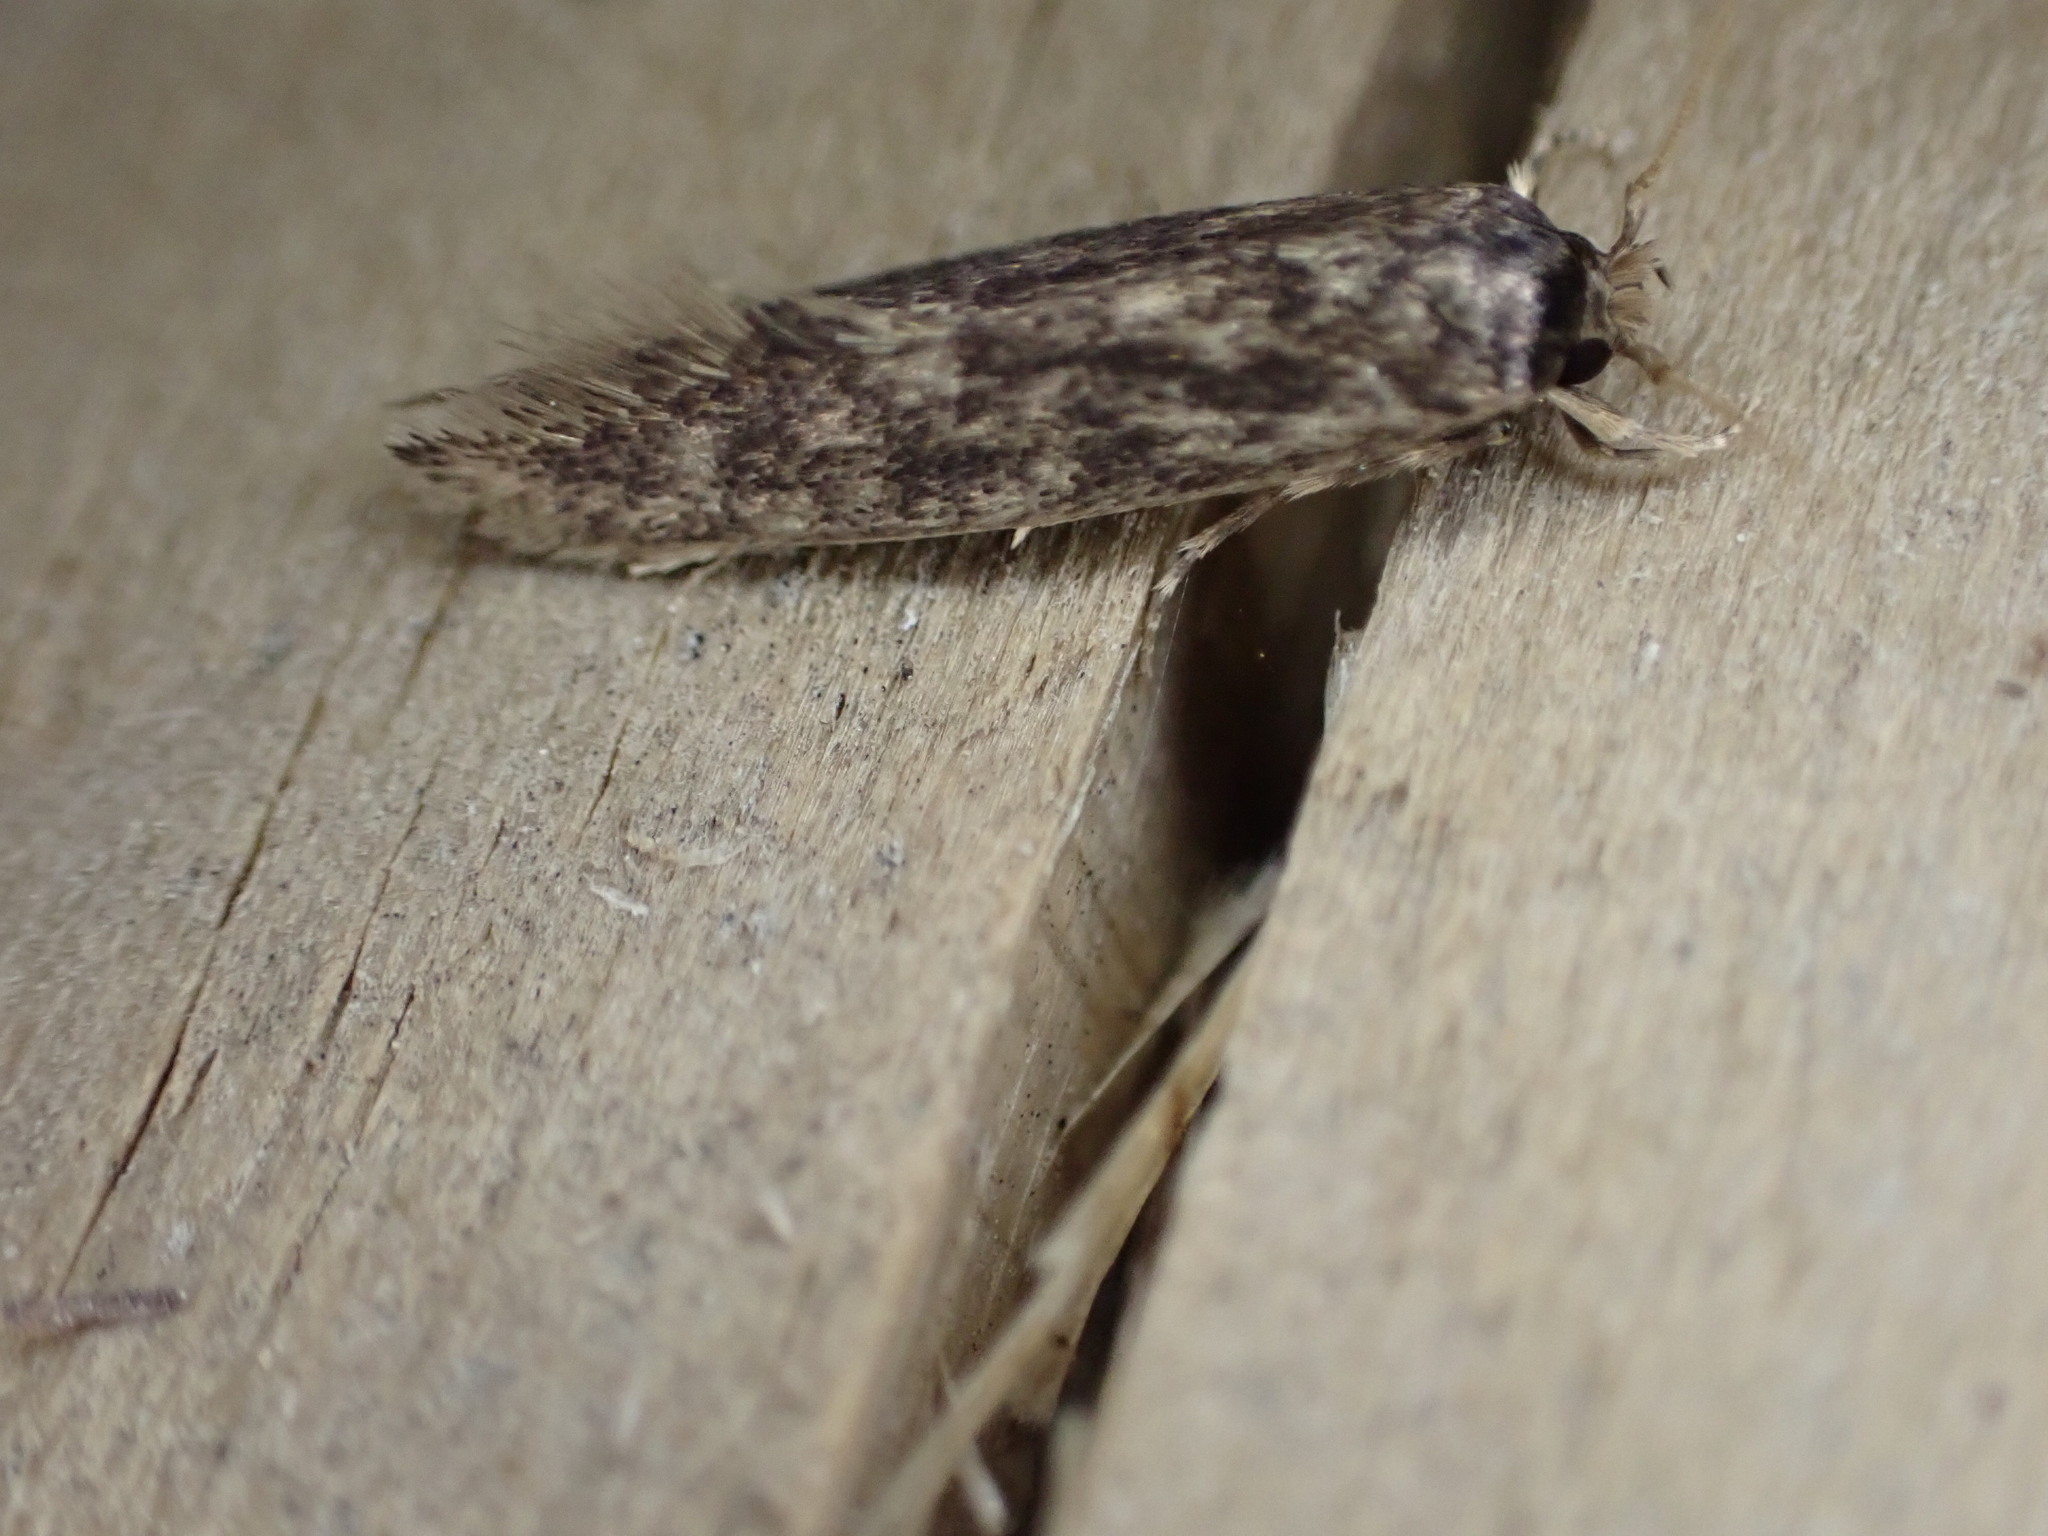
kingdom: Animalia
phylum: Arthropoda
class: Insecta
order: Lepidoptera
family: Tineidae
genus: Opogona
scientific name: Opogona omoscopa
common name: Moth
